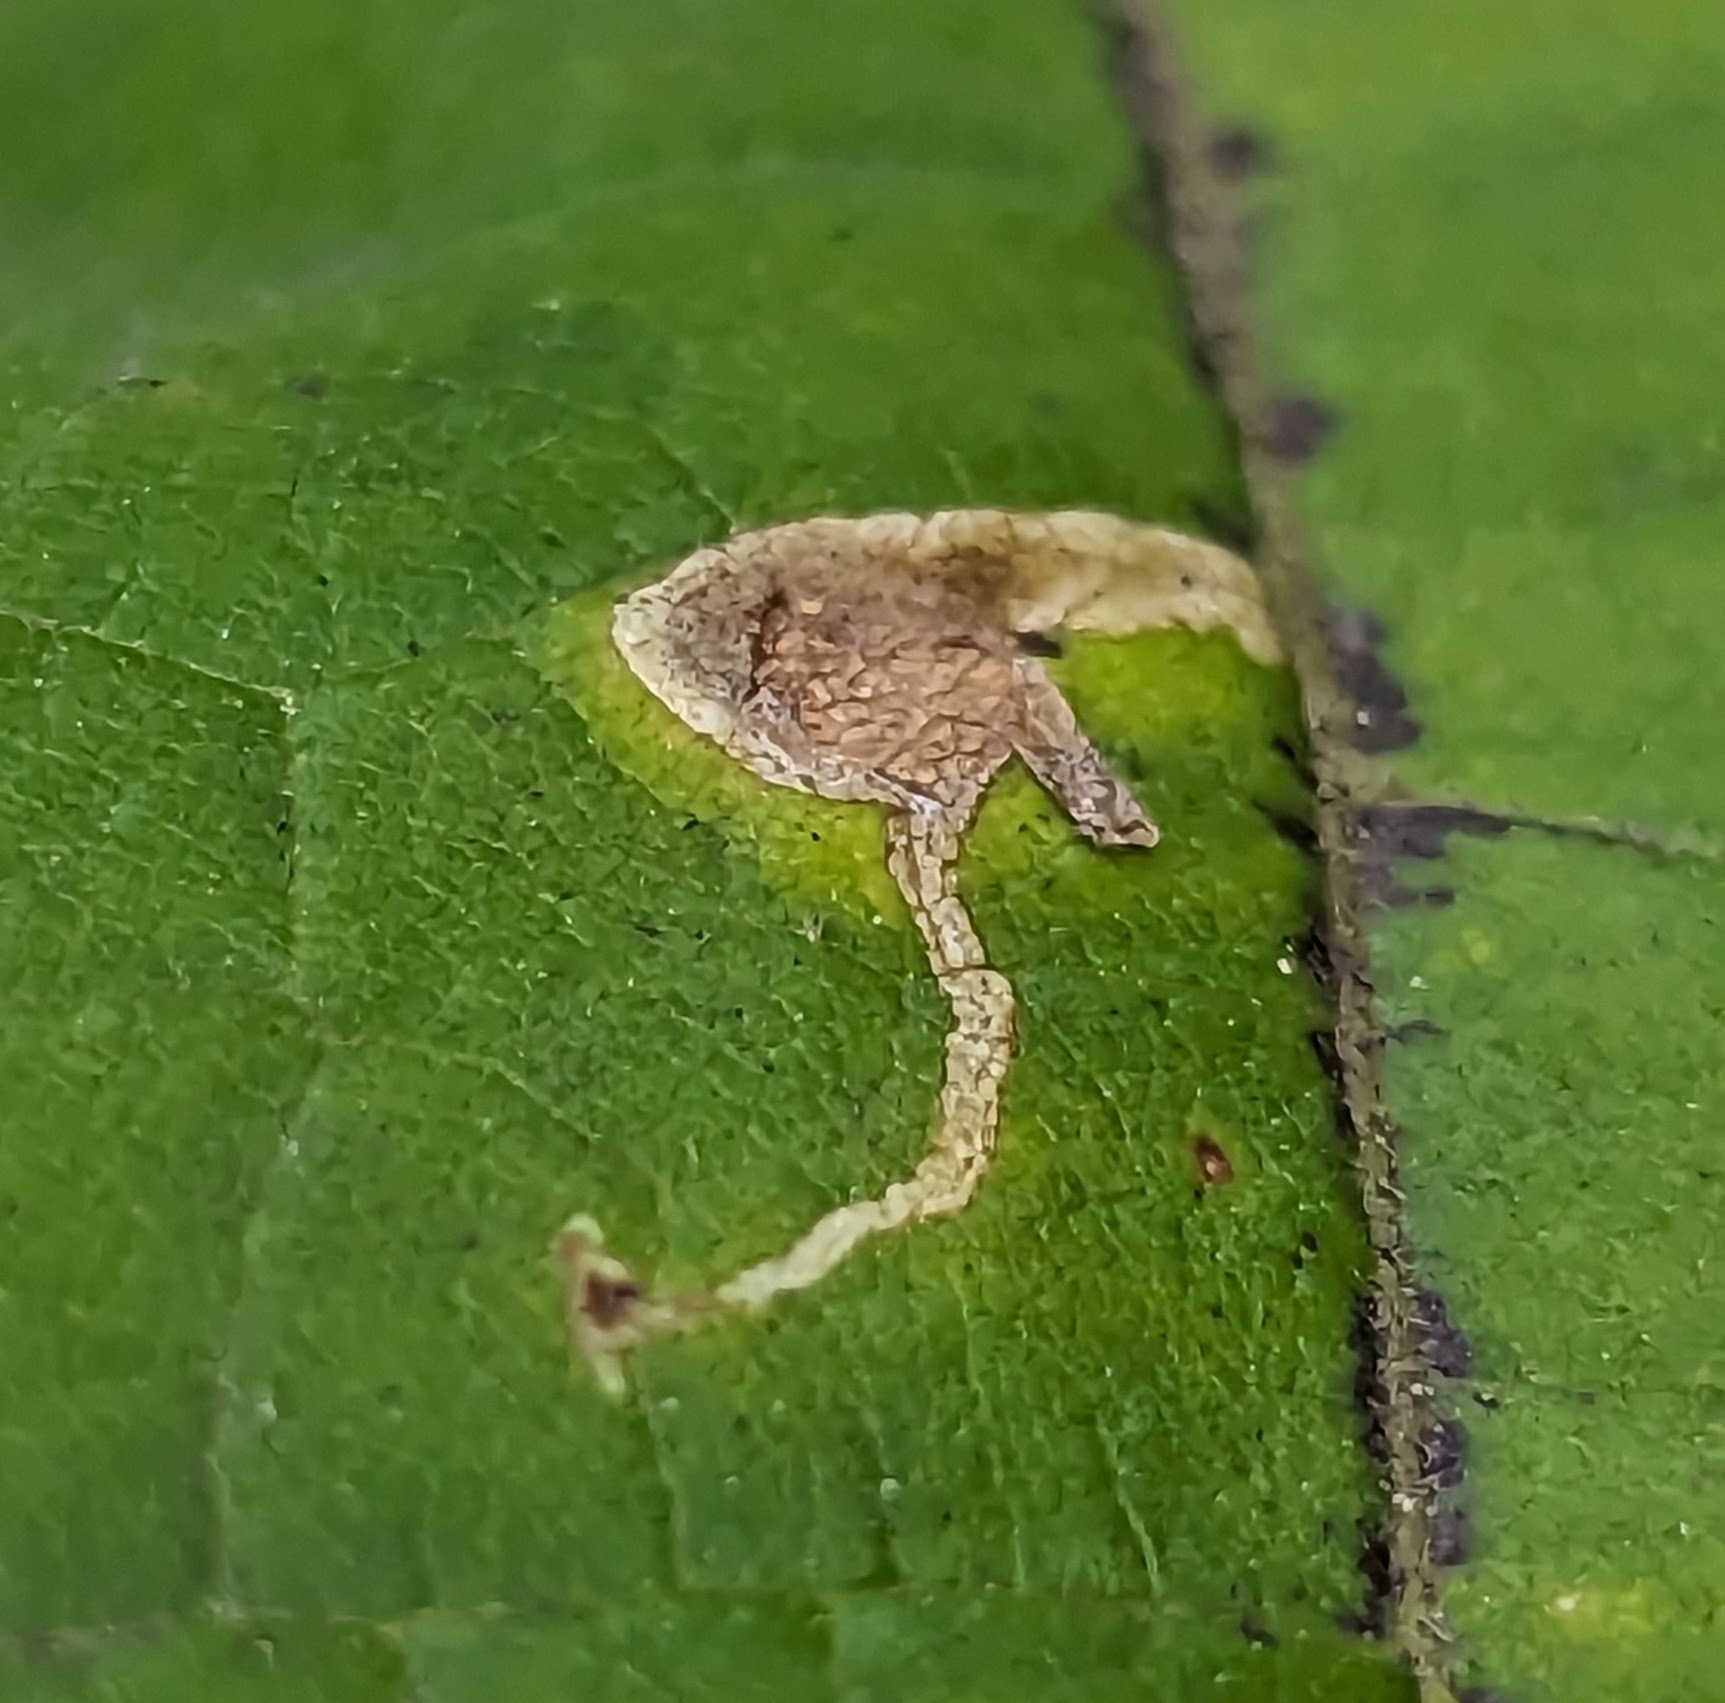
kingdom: Animalia
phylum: Arthropoda
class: Insecta
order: Diptera
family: Agromyzidae
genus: Amauromyza
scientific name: Amauromyza pleuralis
